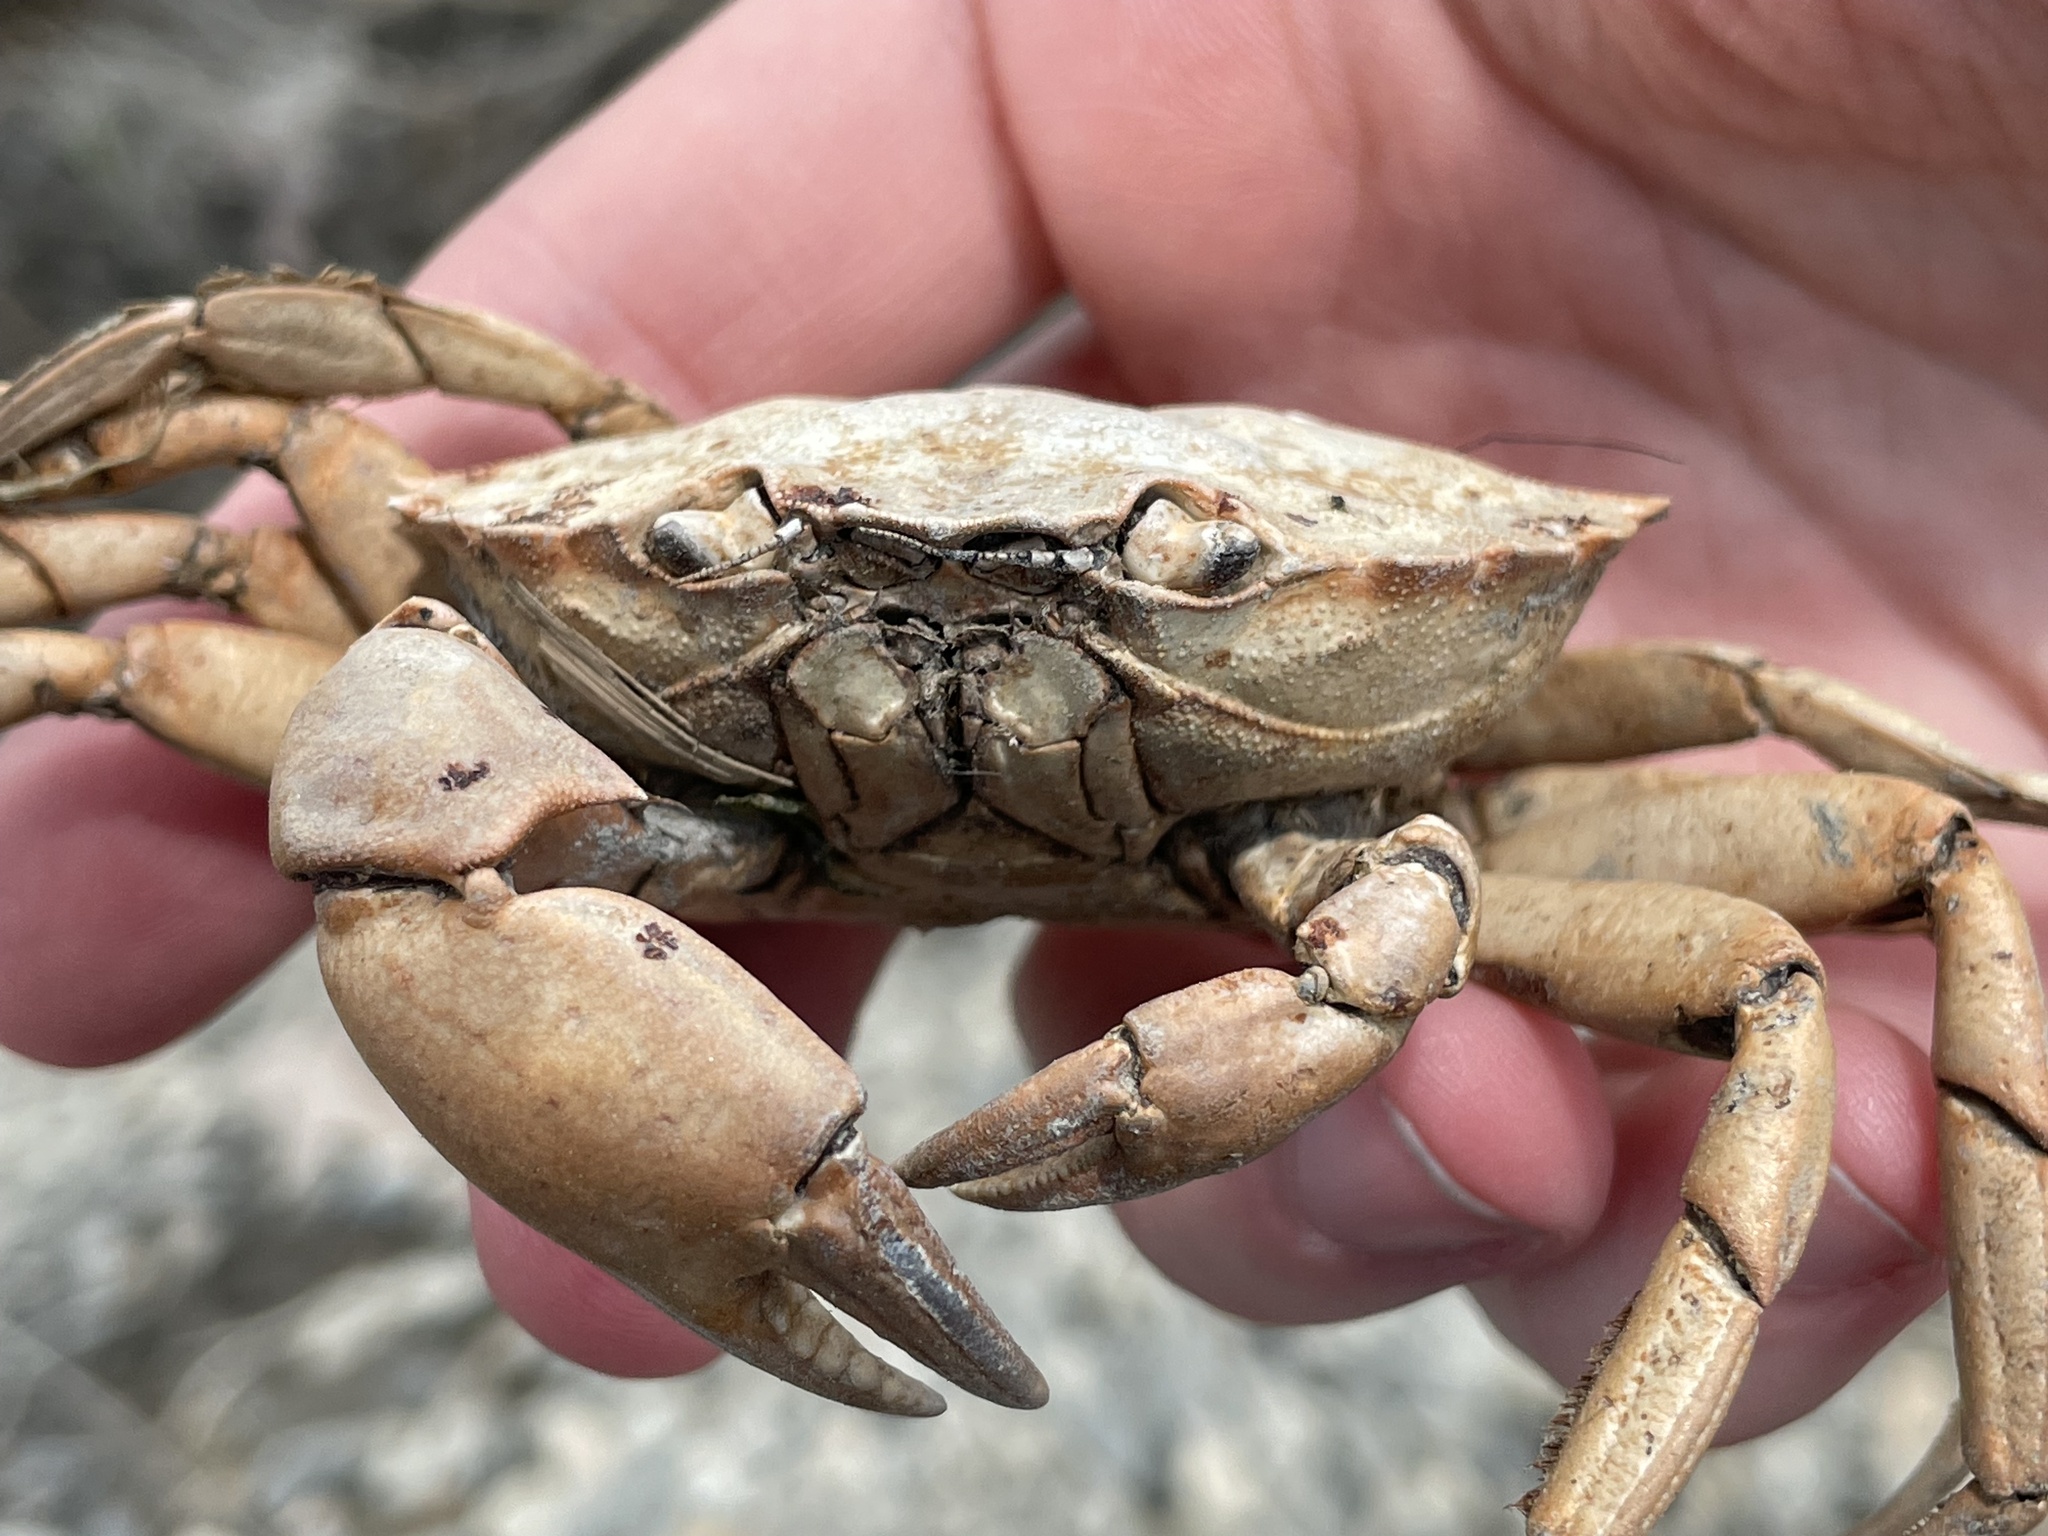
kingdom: Animalia
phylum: Arthropoda
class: Malacostraca
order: Decapoda
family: Carcinidae
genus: Carcinus
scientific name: Carcinus maenas
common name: European green crab
